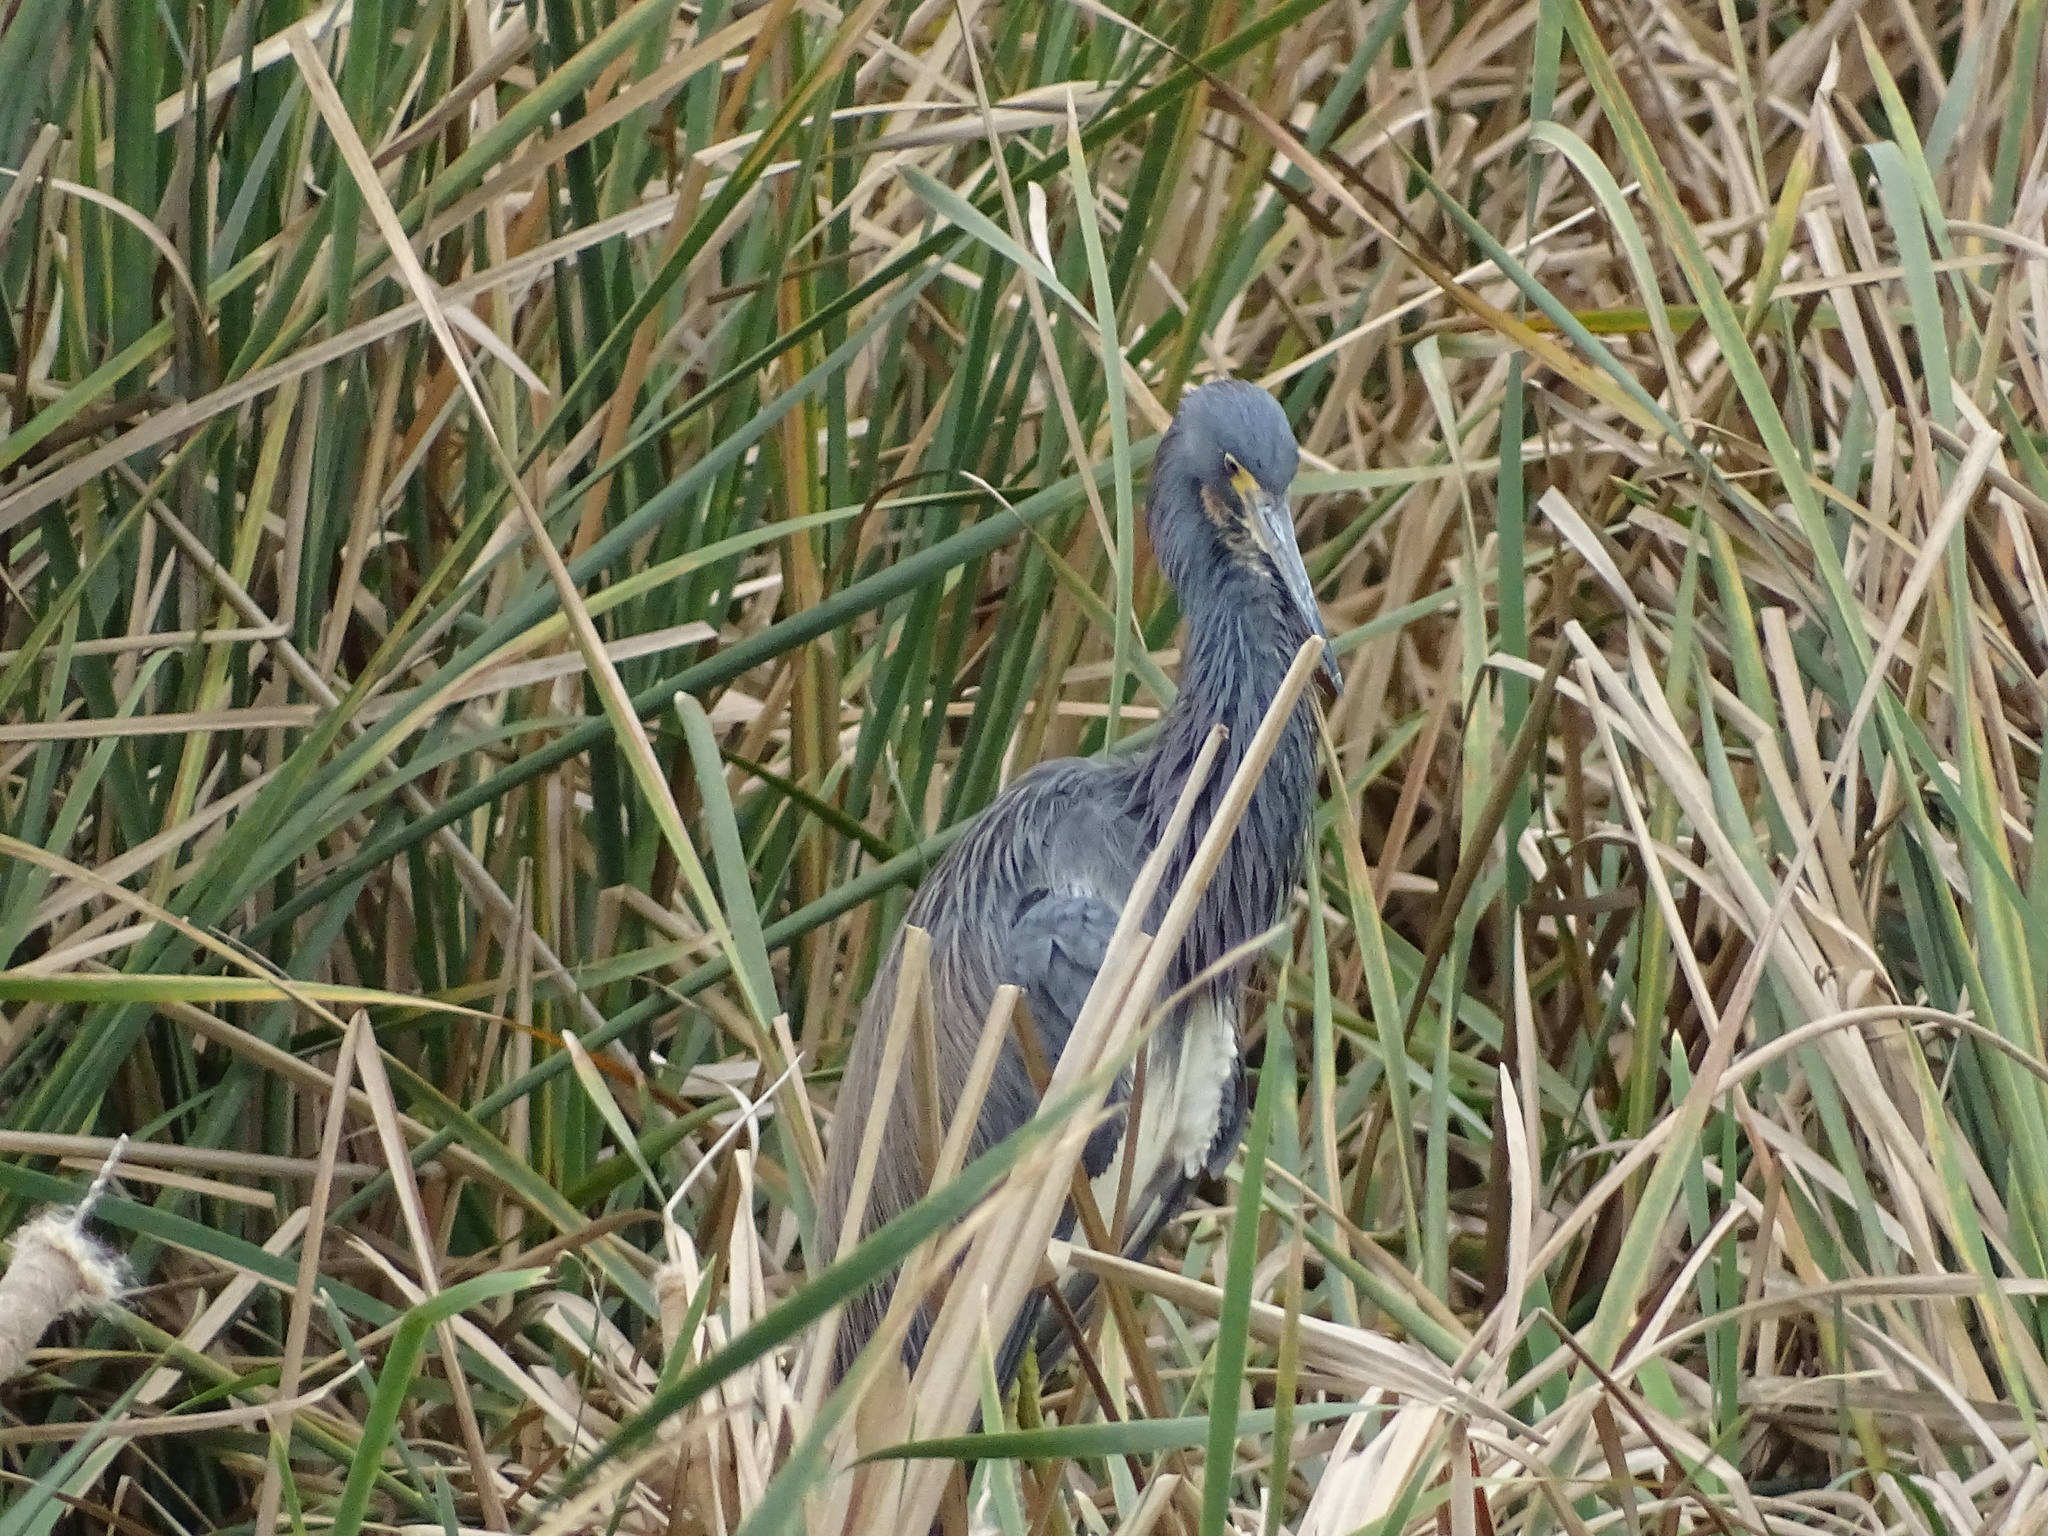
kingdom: Animalia
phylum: Chordata
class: Aves
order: Pelecaniformes
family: Ardeidae
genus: Egretta
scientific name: Egretta tricolor
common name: Tricolored heron
